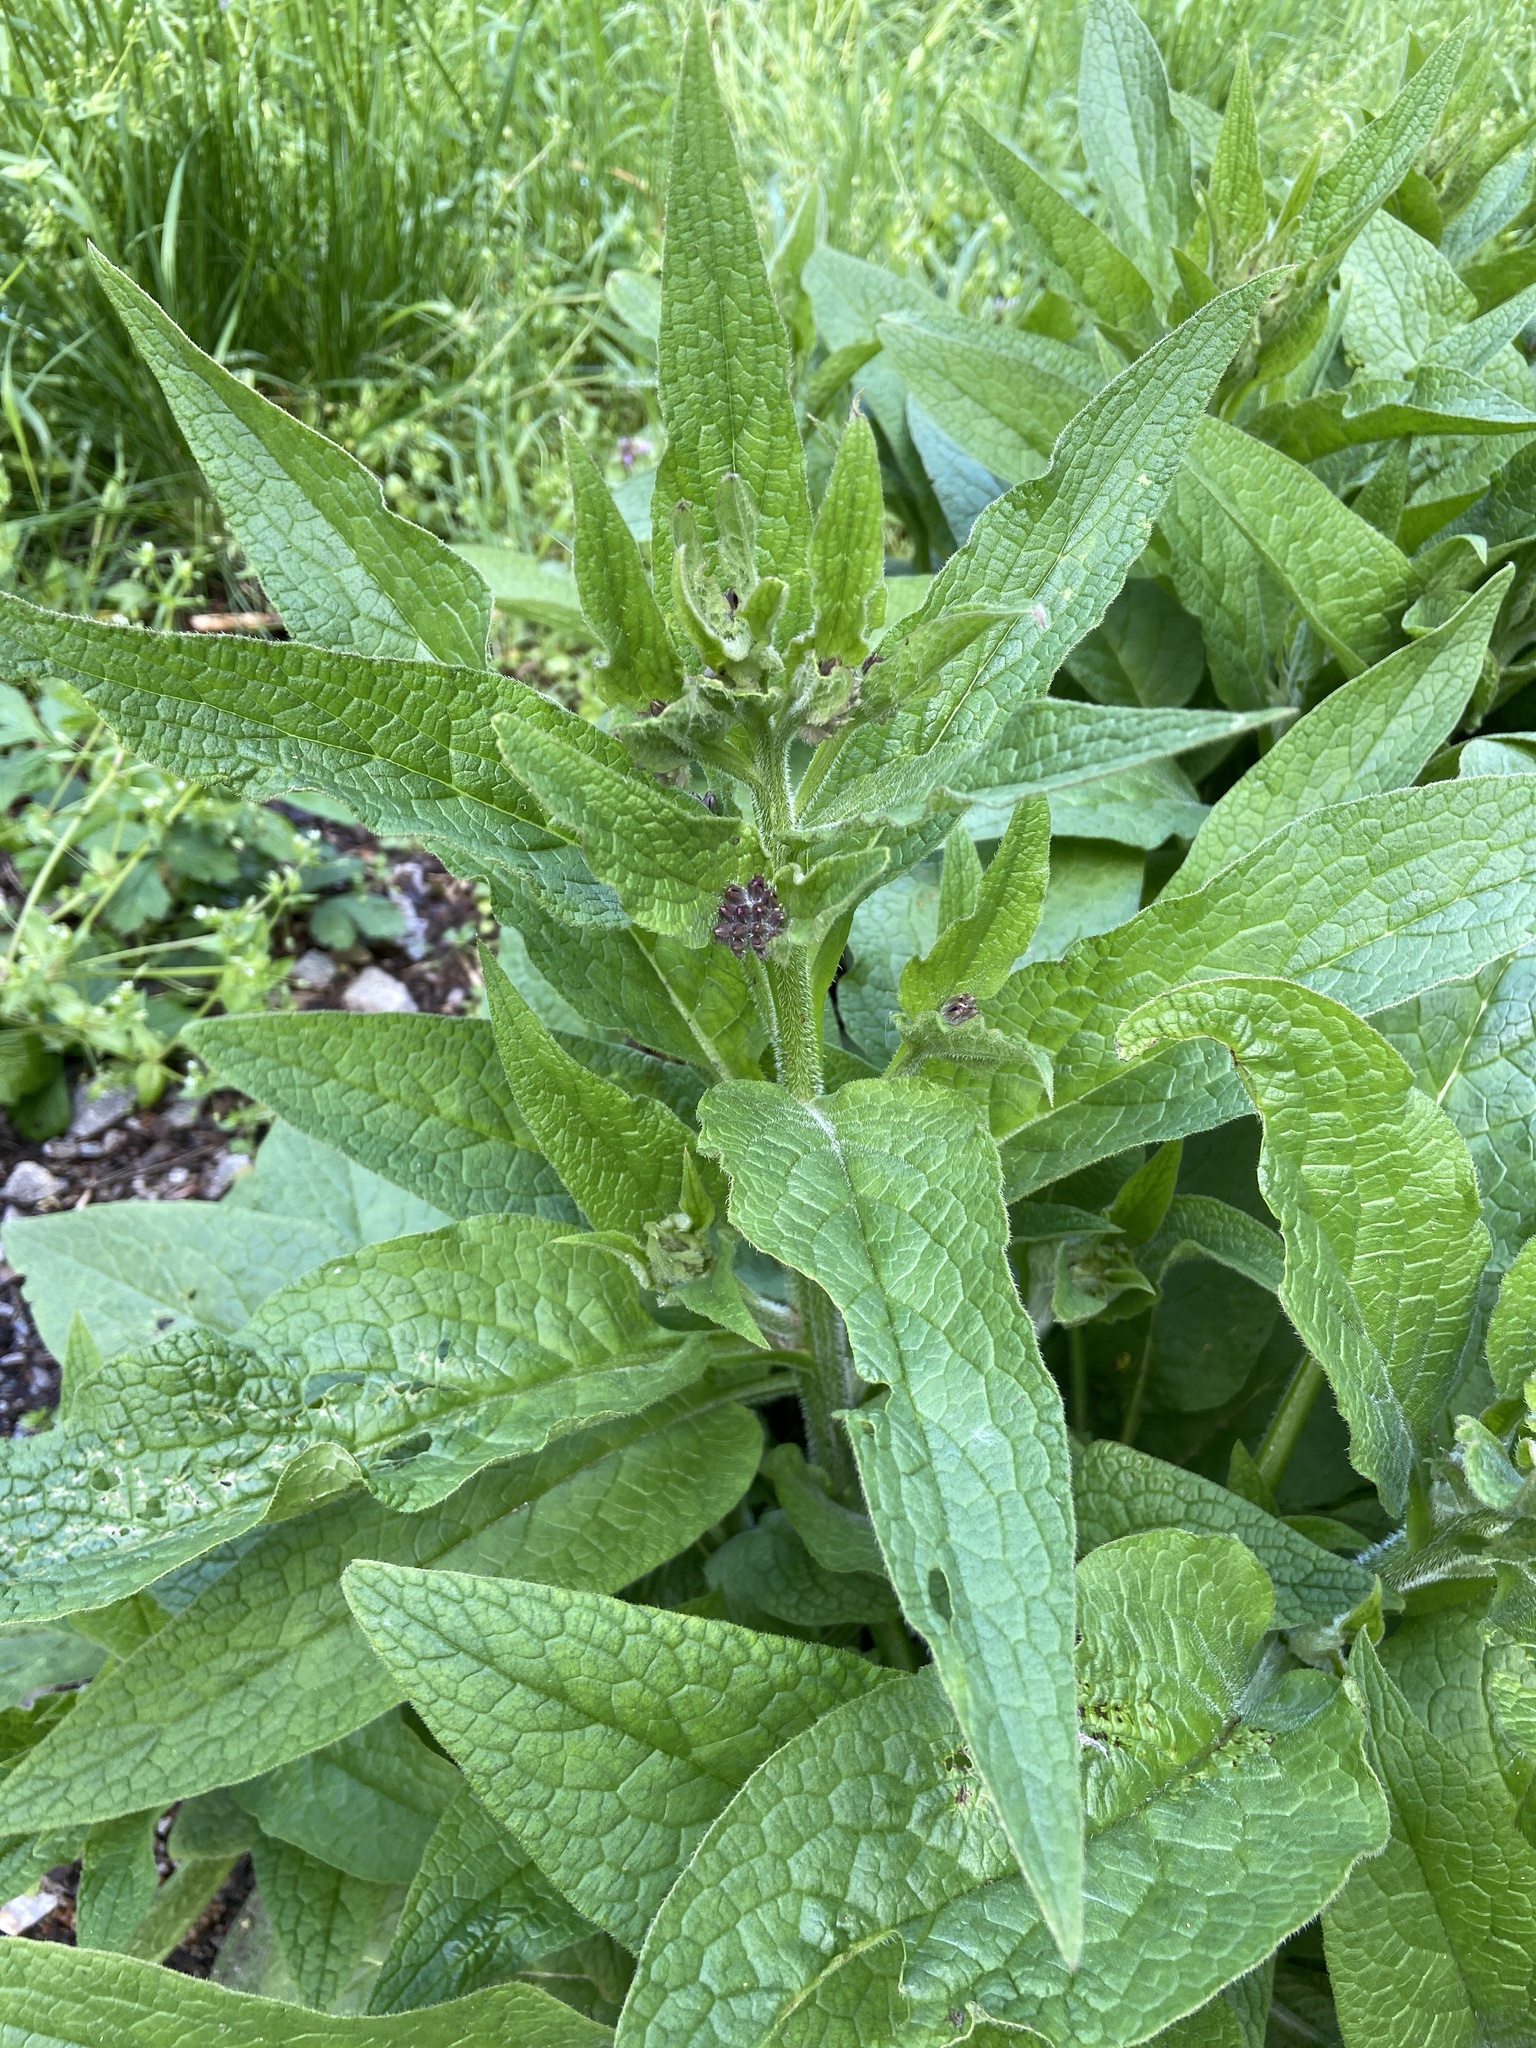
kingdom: Plantae
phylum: Tracheophyta
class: Magnoliopsida
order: Boraginales
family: Boraginaceae
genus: Symphytum
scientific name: Symphytum officinale
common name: Common comfrey
